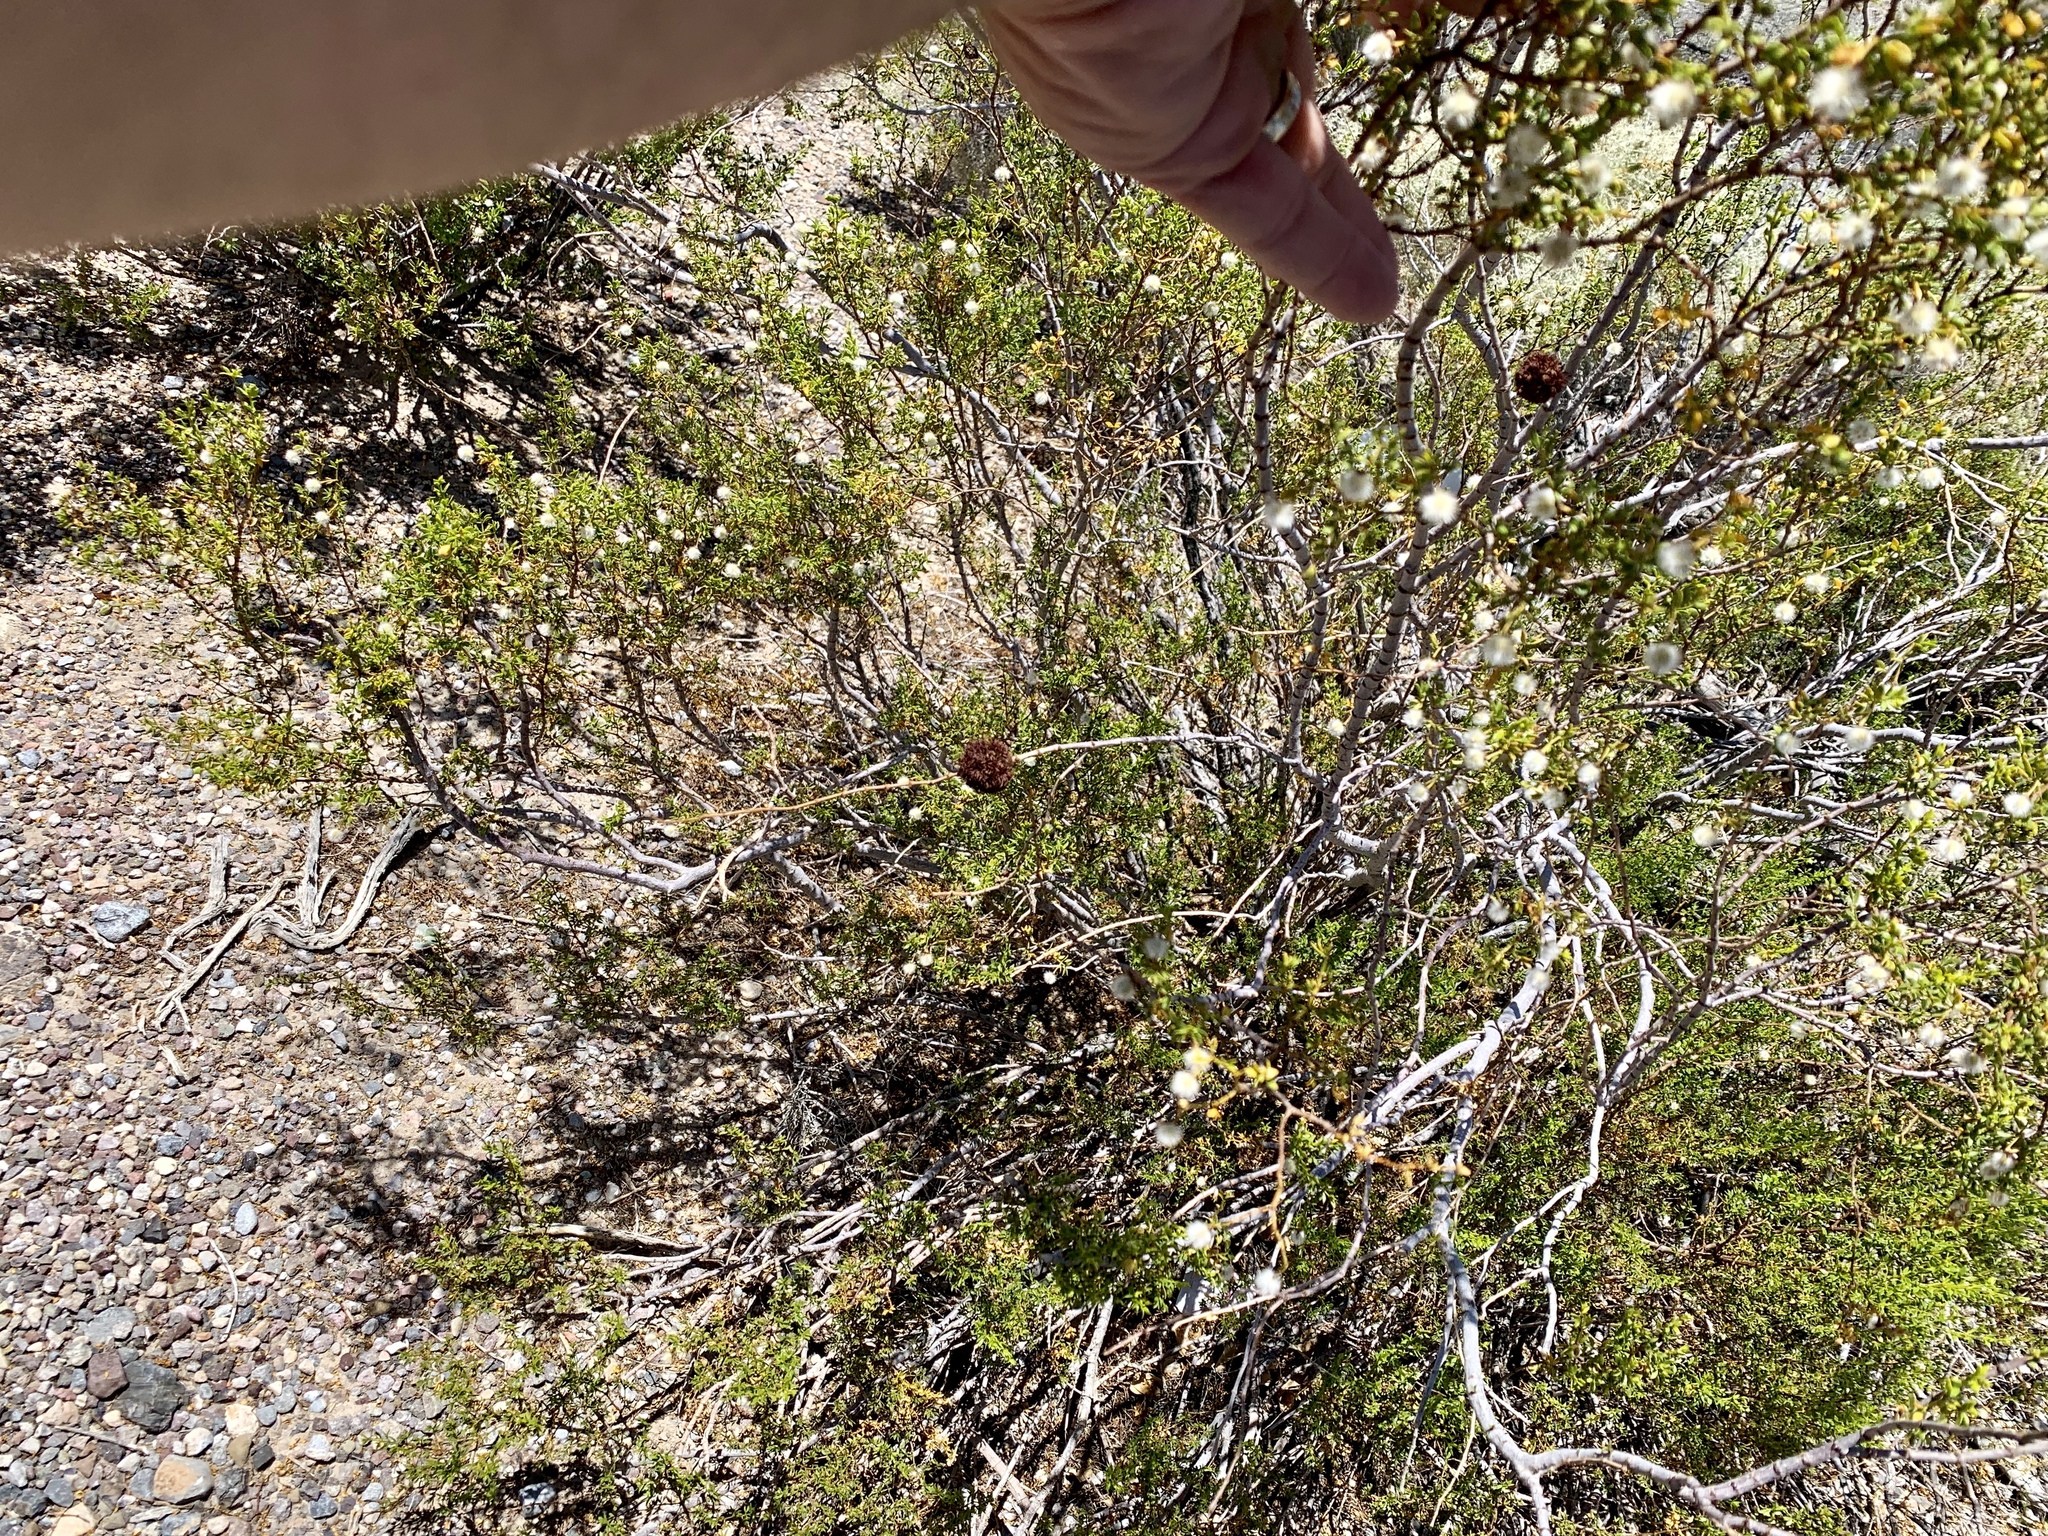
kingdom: Plantae
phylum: Tracheophyta
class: Magnoliopsida
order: Zygophyllales
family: Zygophyllaceae
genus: Larrea
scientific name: Larrea tridentata
